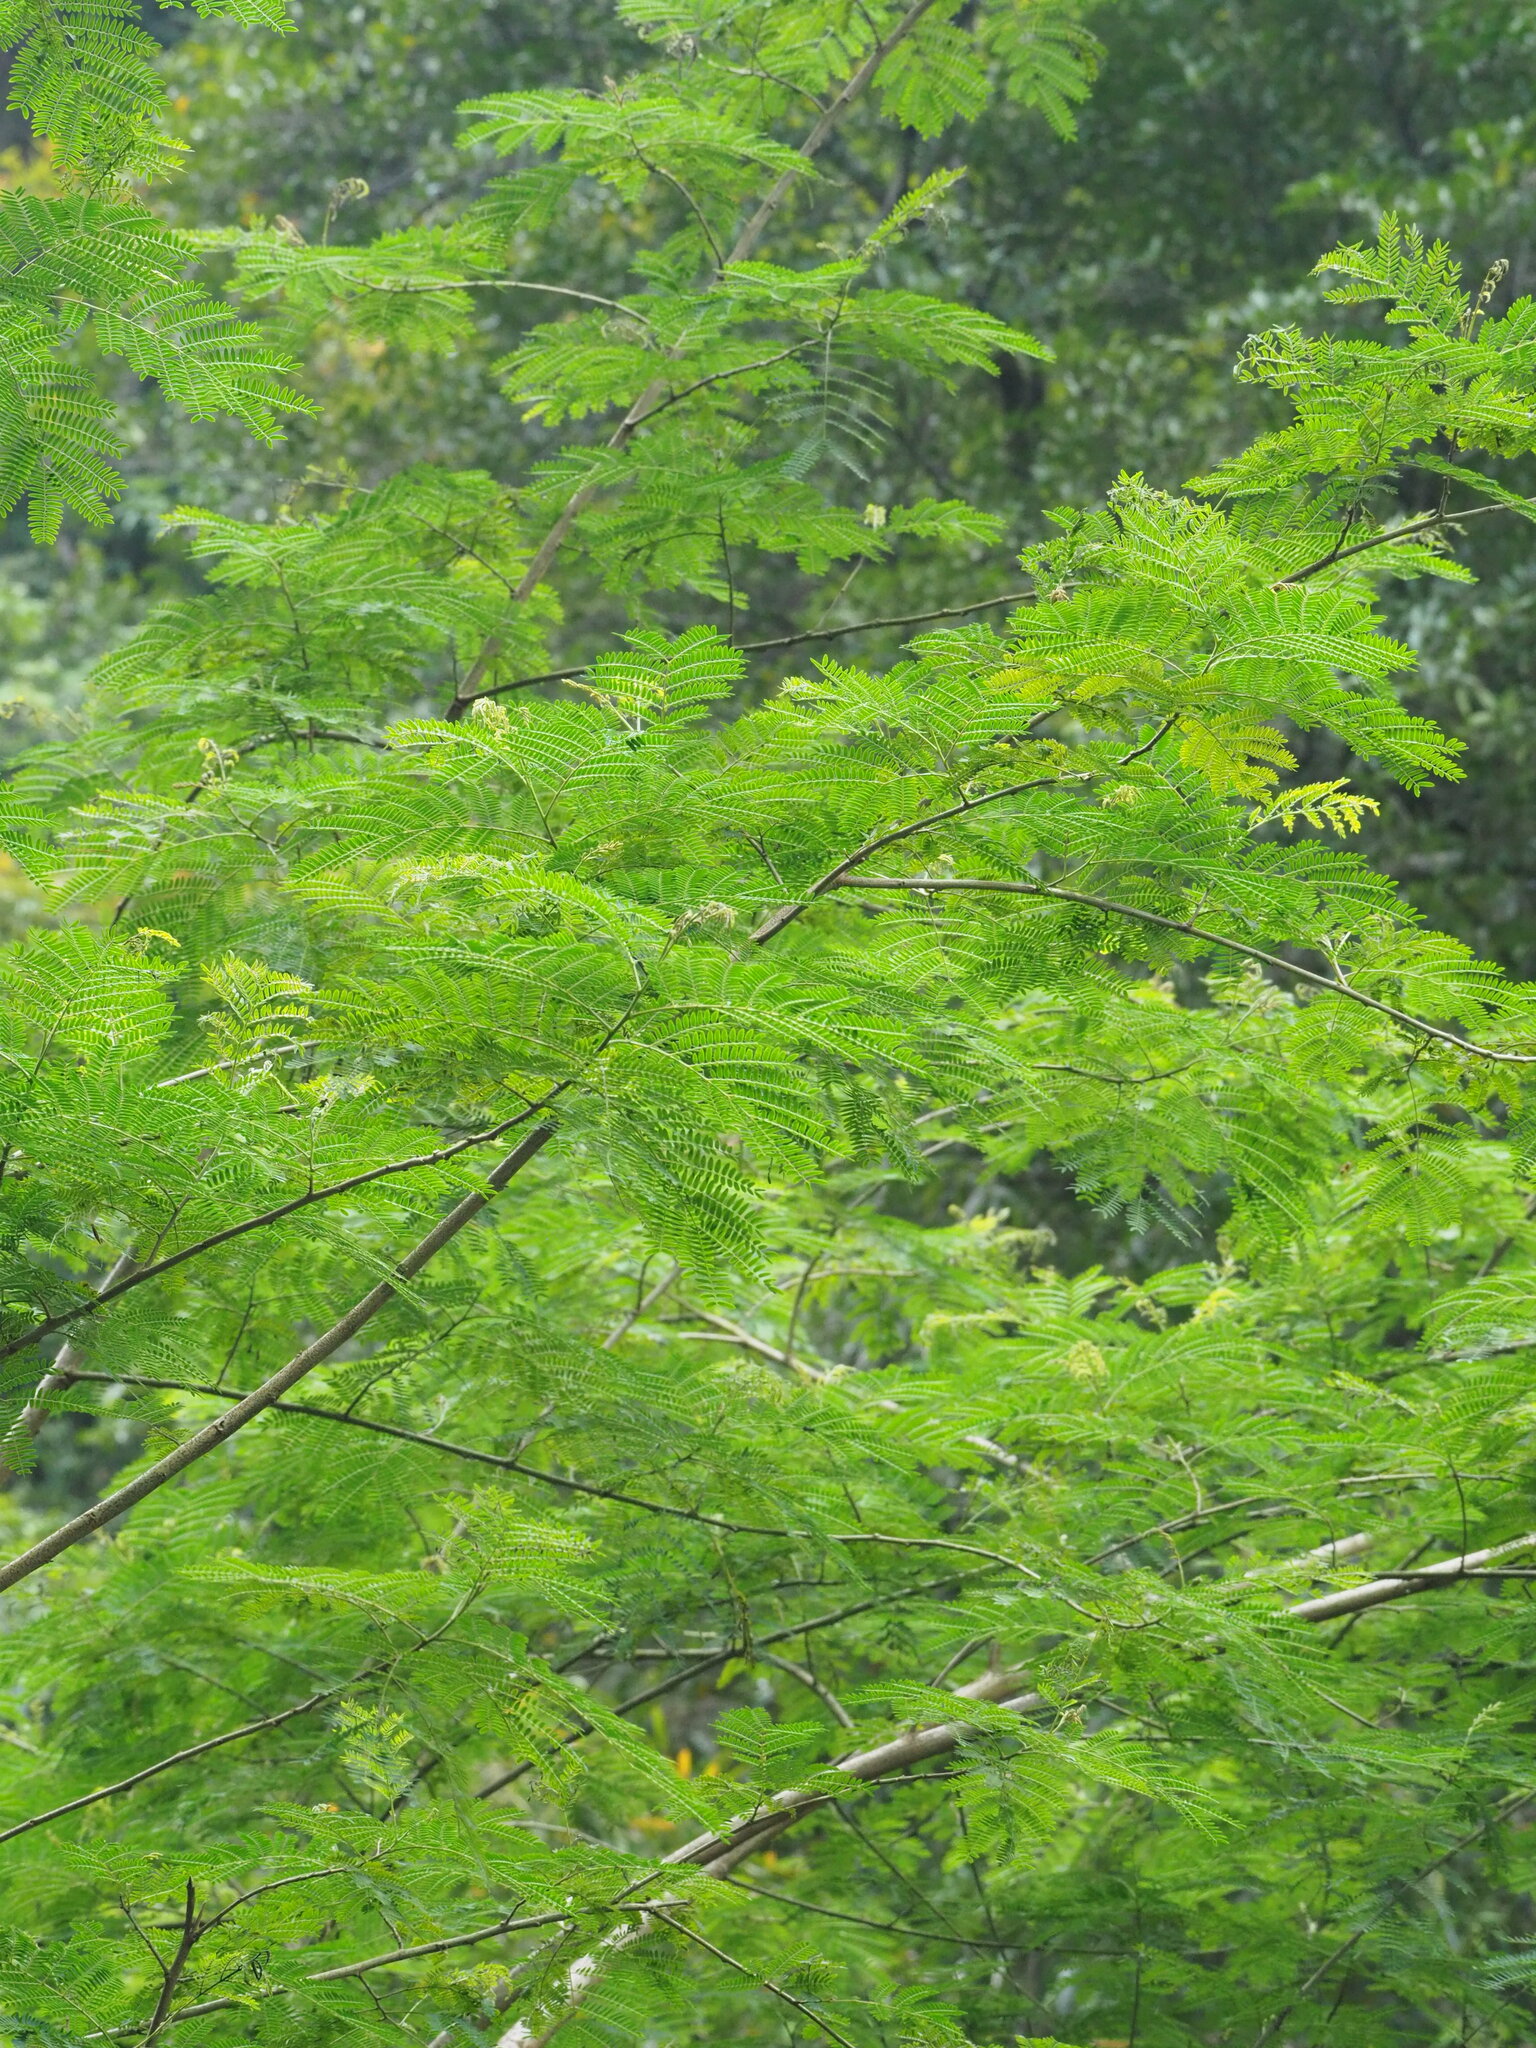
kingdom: Plantae
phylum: Tracheophyta
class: Magnoliopsida
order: Fabales
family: Fabaceae
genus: Leucaena
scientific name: Leucaena leucocephala
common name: White leadtree
